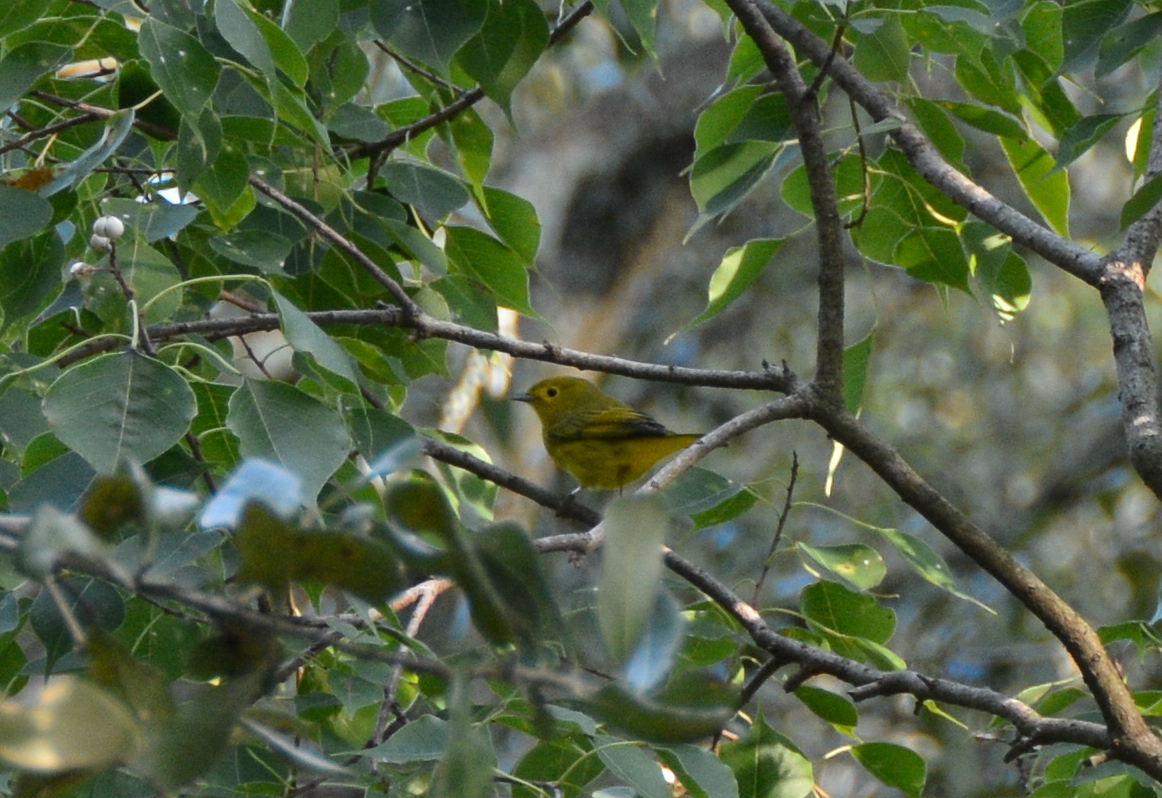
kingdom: Animalia
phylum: Chordata
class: Aves
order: Passeriformes
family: Parulidae
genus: Setophaga
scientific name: Setophaga petechia
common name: Yellow warbler
